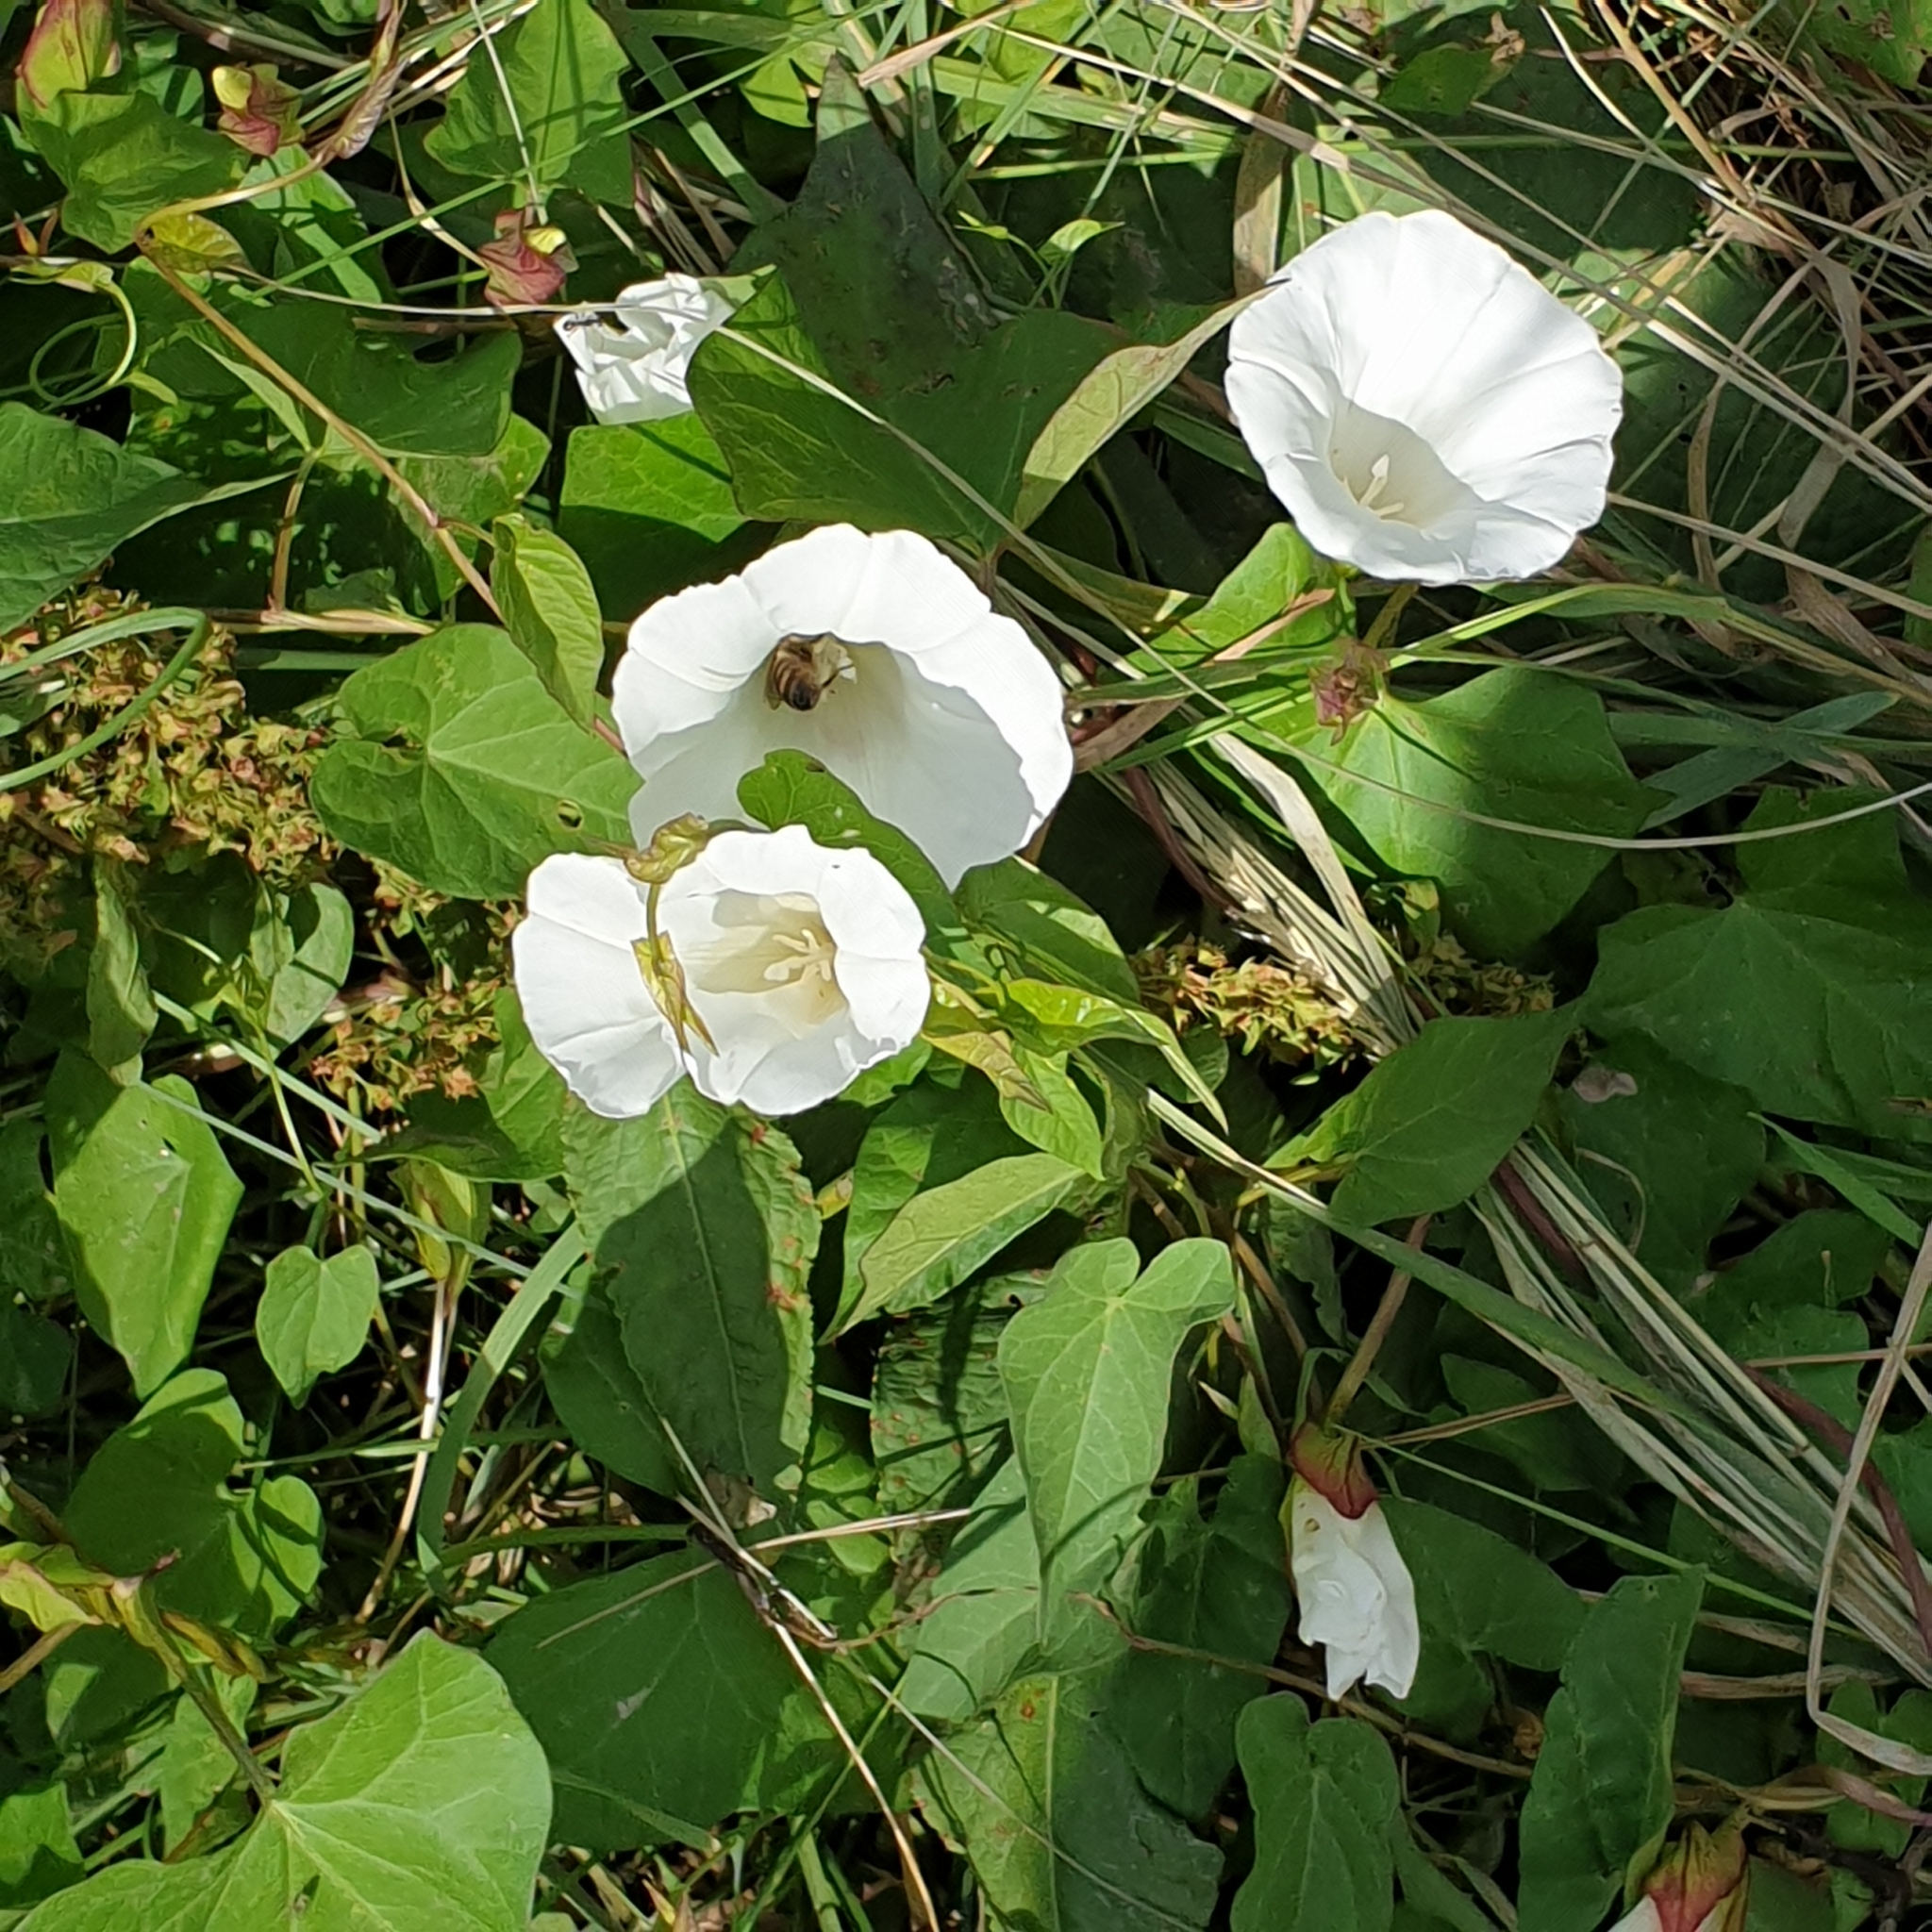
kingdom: Plantae
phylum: Tracheophyta
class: Magnoliopsida
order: Solanales
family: Convolvulaceae
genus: Calystegia
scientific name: Calystegia sepium
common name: Hedge bindweed
